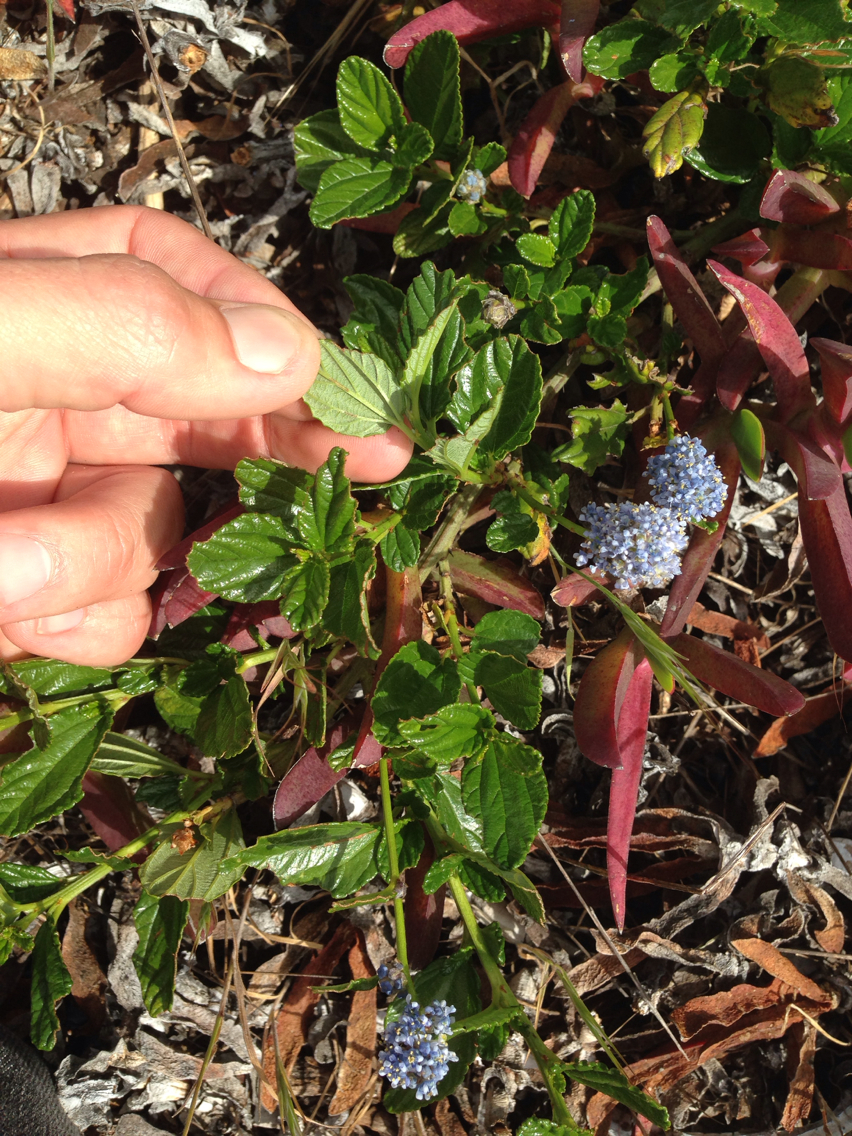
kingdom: Plantae
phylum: Tracheophyta
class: Magnoliopsida
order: Rosales
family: Rhamnaceae
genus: Ceanothus
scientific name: Ceanothus thyrsiflorus
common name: California-lilac
